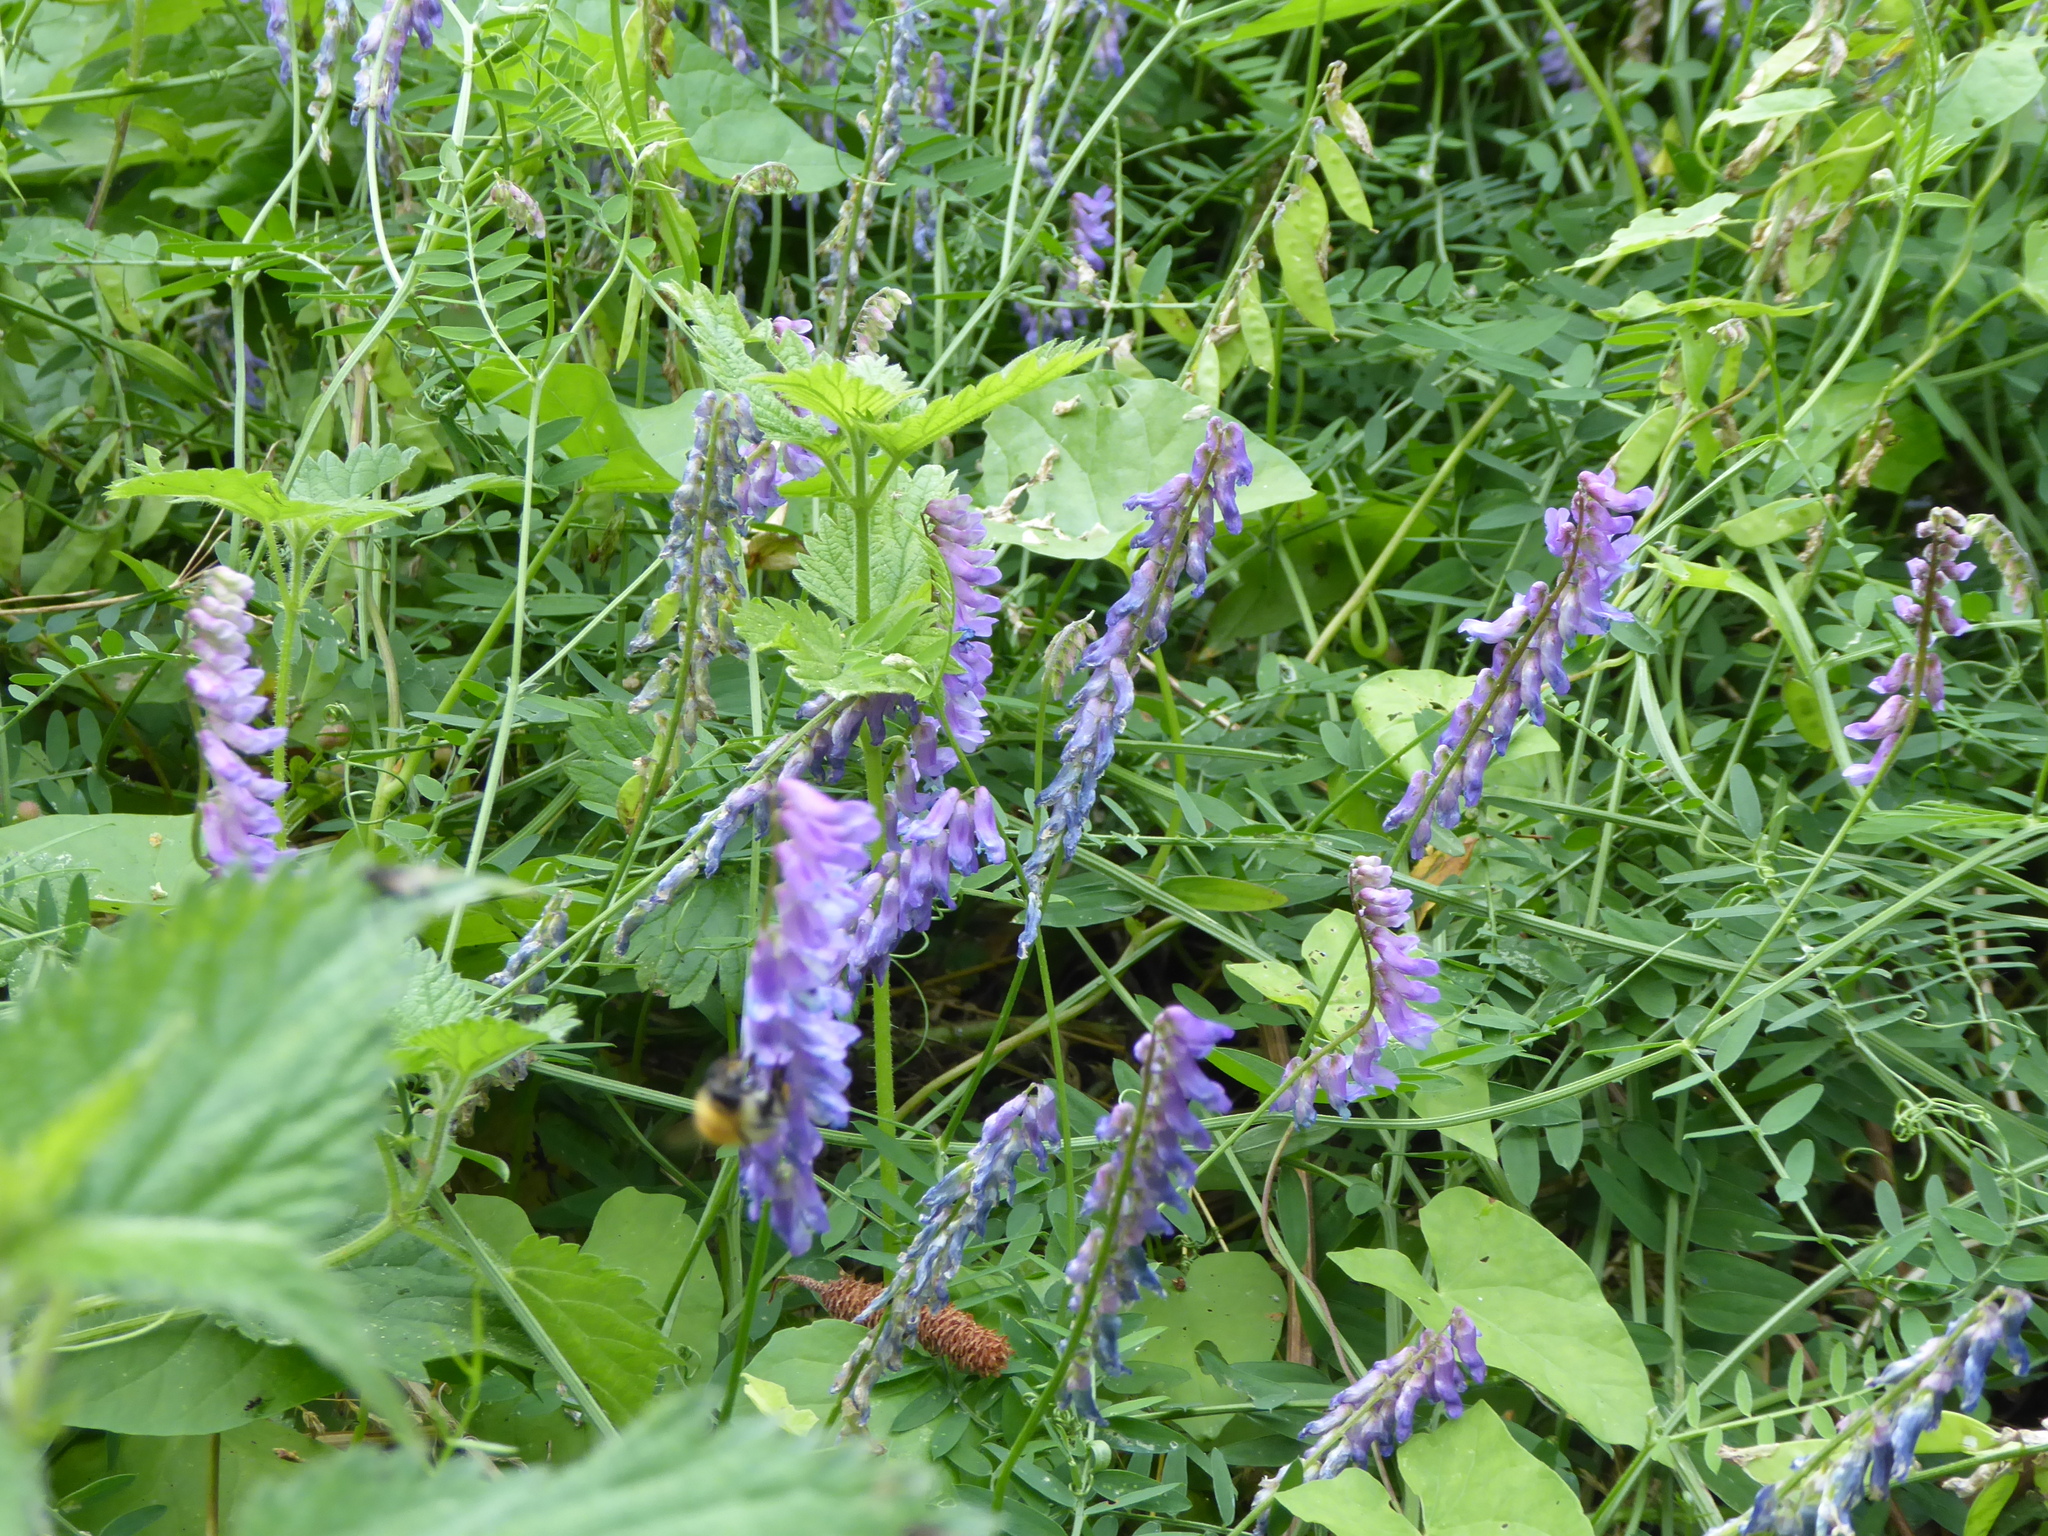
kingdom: Plantae
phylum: Tracheophyta
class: Magnoliopsida
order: Fabales
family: Fabaceae
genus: Galega
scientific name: Galega officinalis
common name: Goat's-rue
